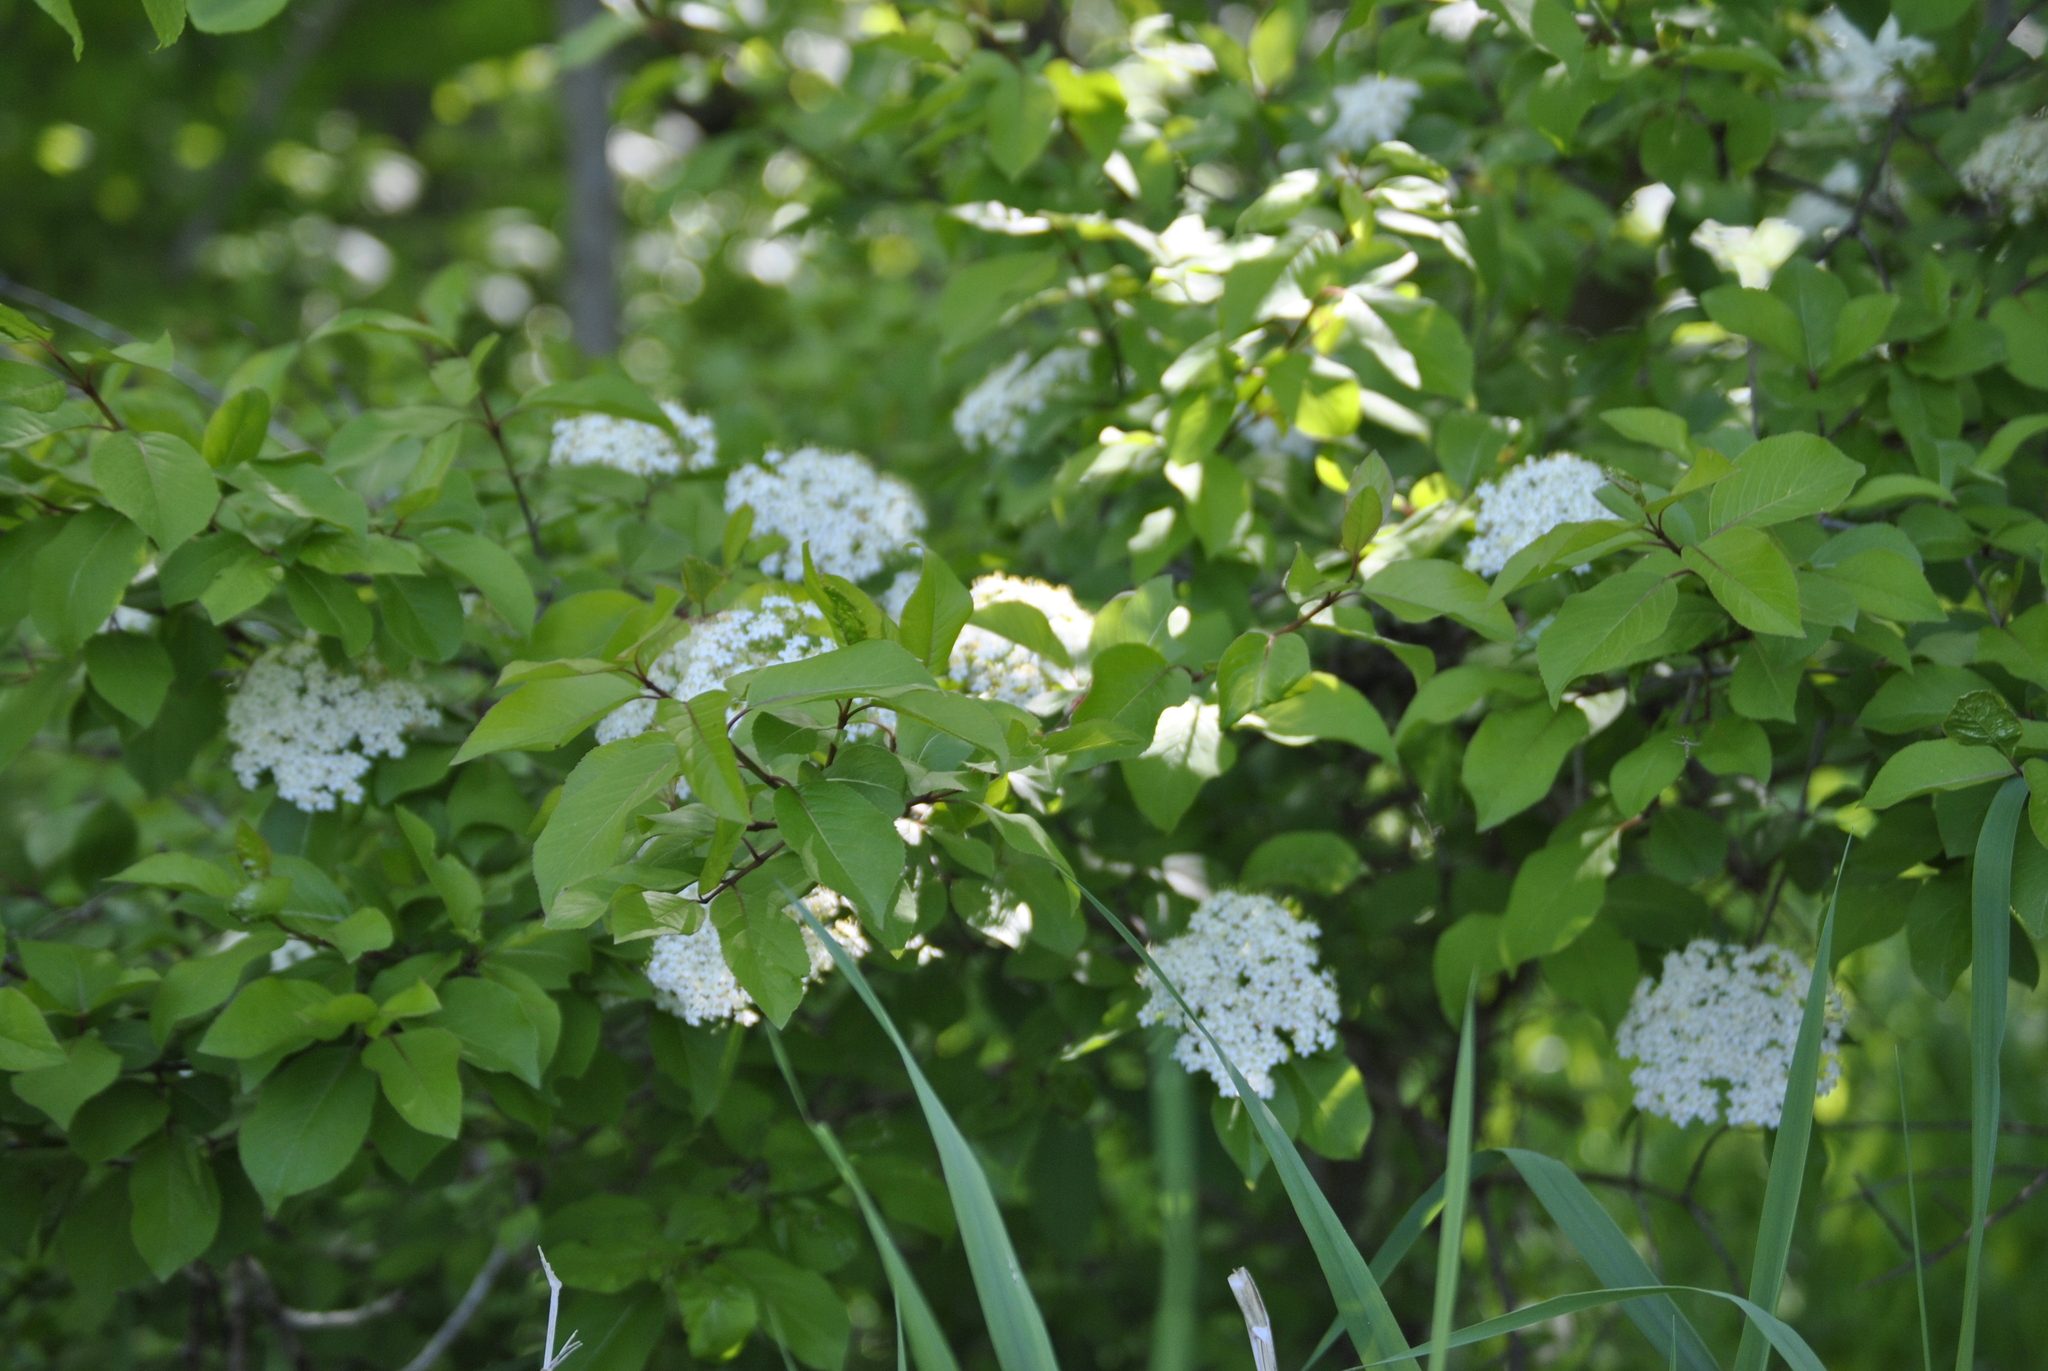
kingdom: Plantae
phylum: Tracheophyta
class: Magnoliopsida
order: Dipsacales
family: Viburnaceae
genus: Viburnum
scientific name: Viburnum prunifolium
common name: Black haw
